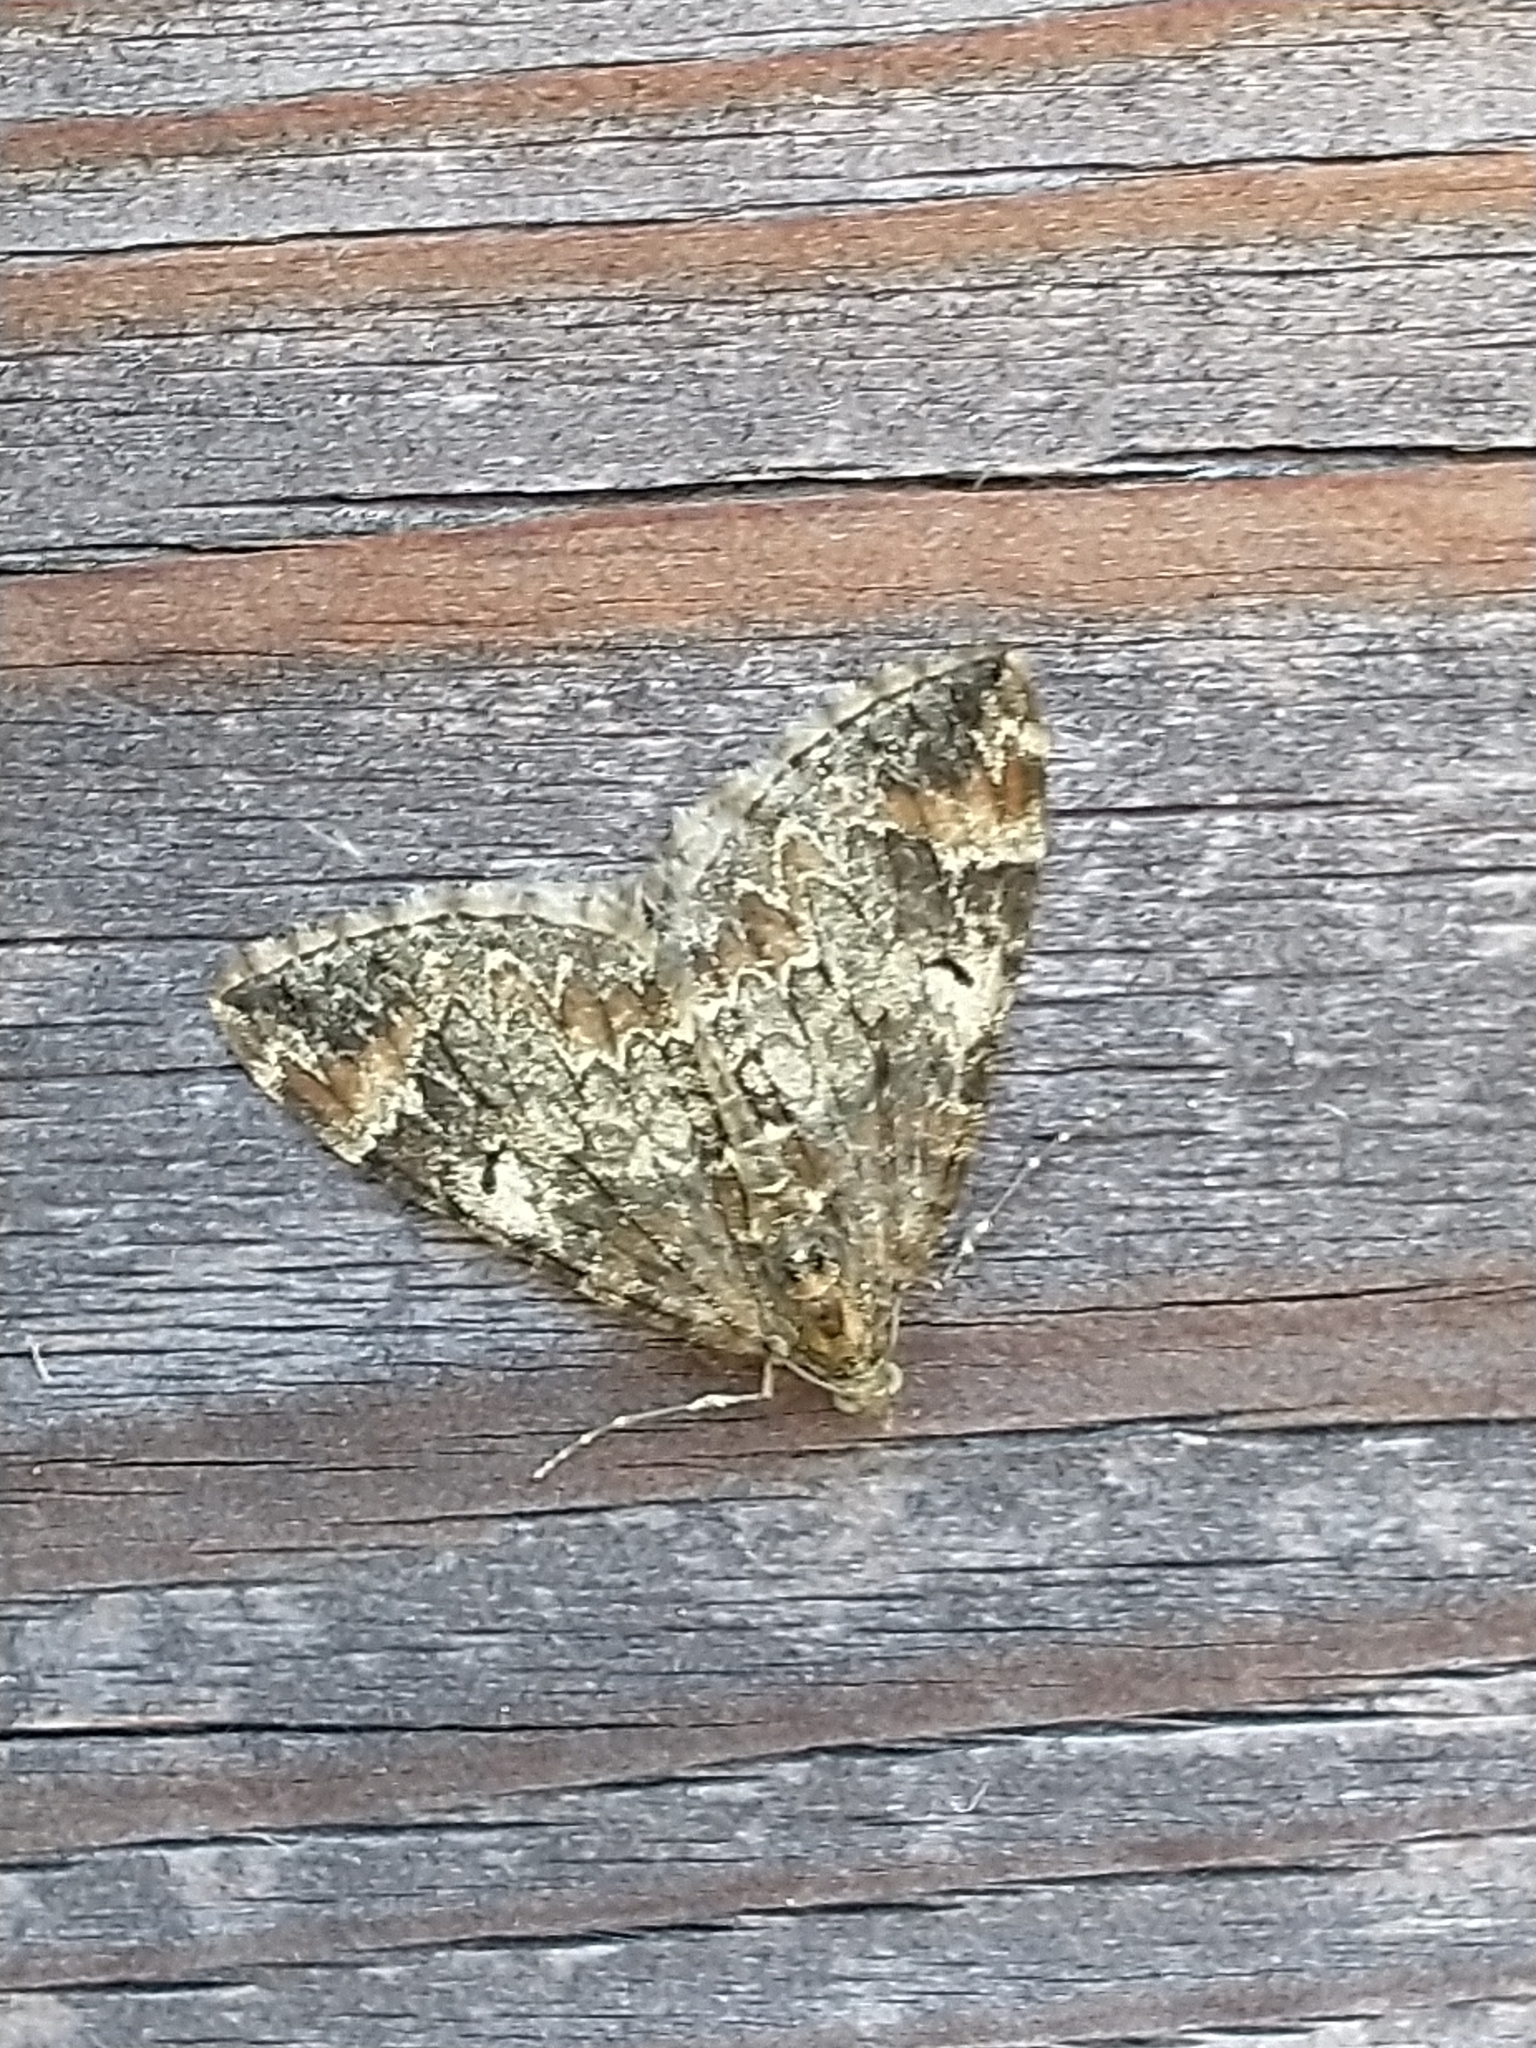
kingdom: Animalia
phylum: Arthropoda
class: Insecta
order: Lepidoptera
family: Geometridae
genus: Dysstroma
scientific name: Dysstroma truncata
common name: Common marbled carpet
